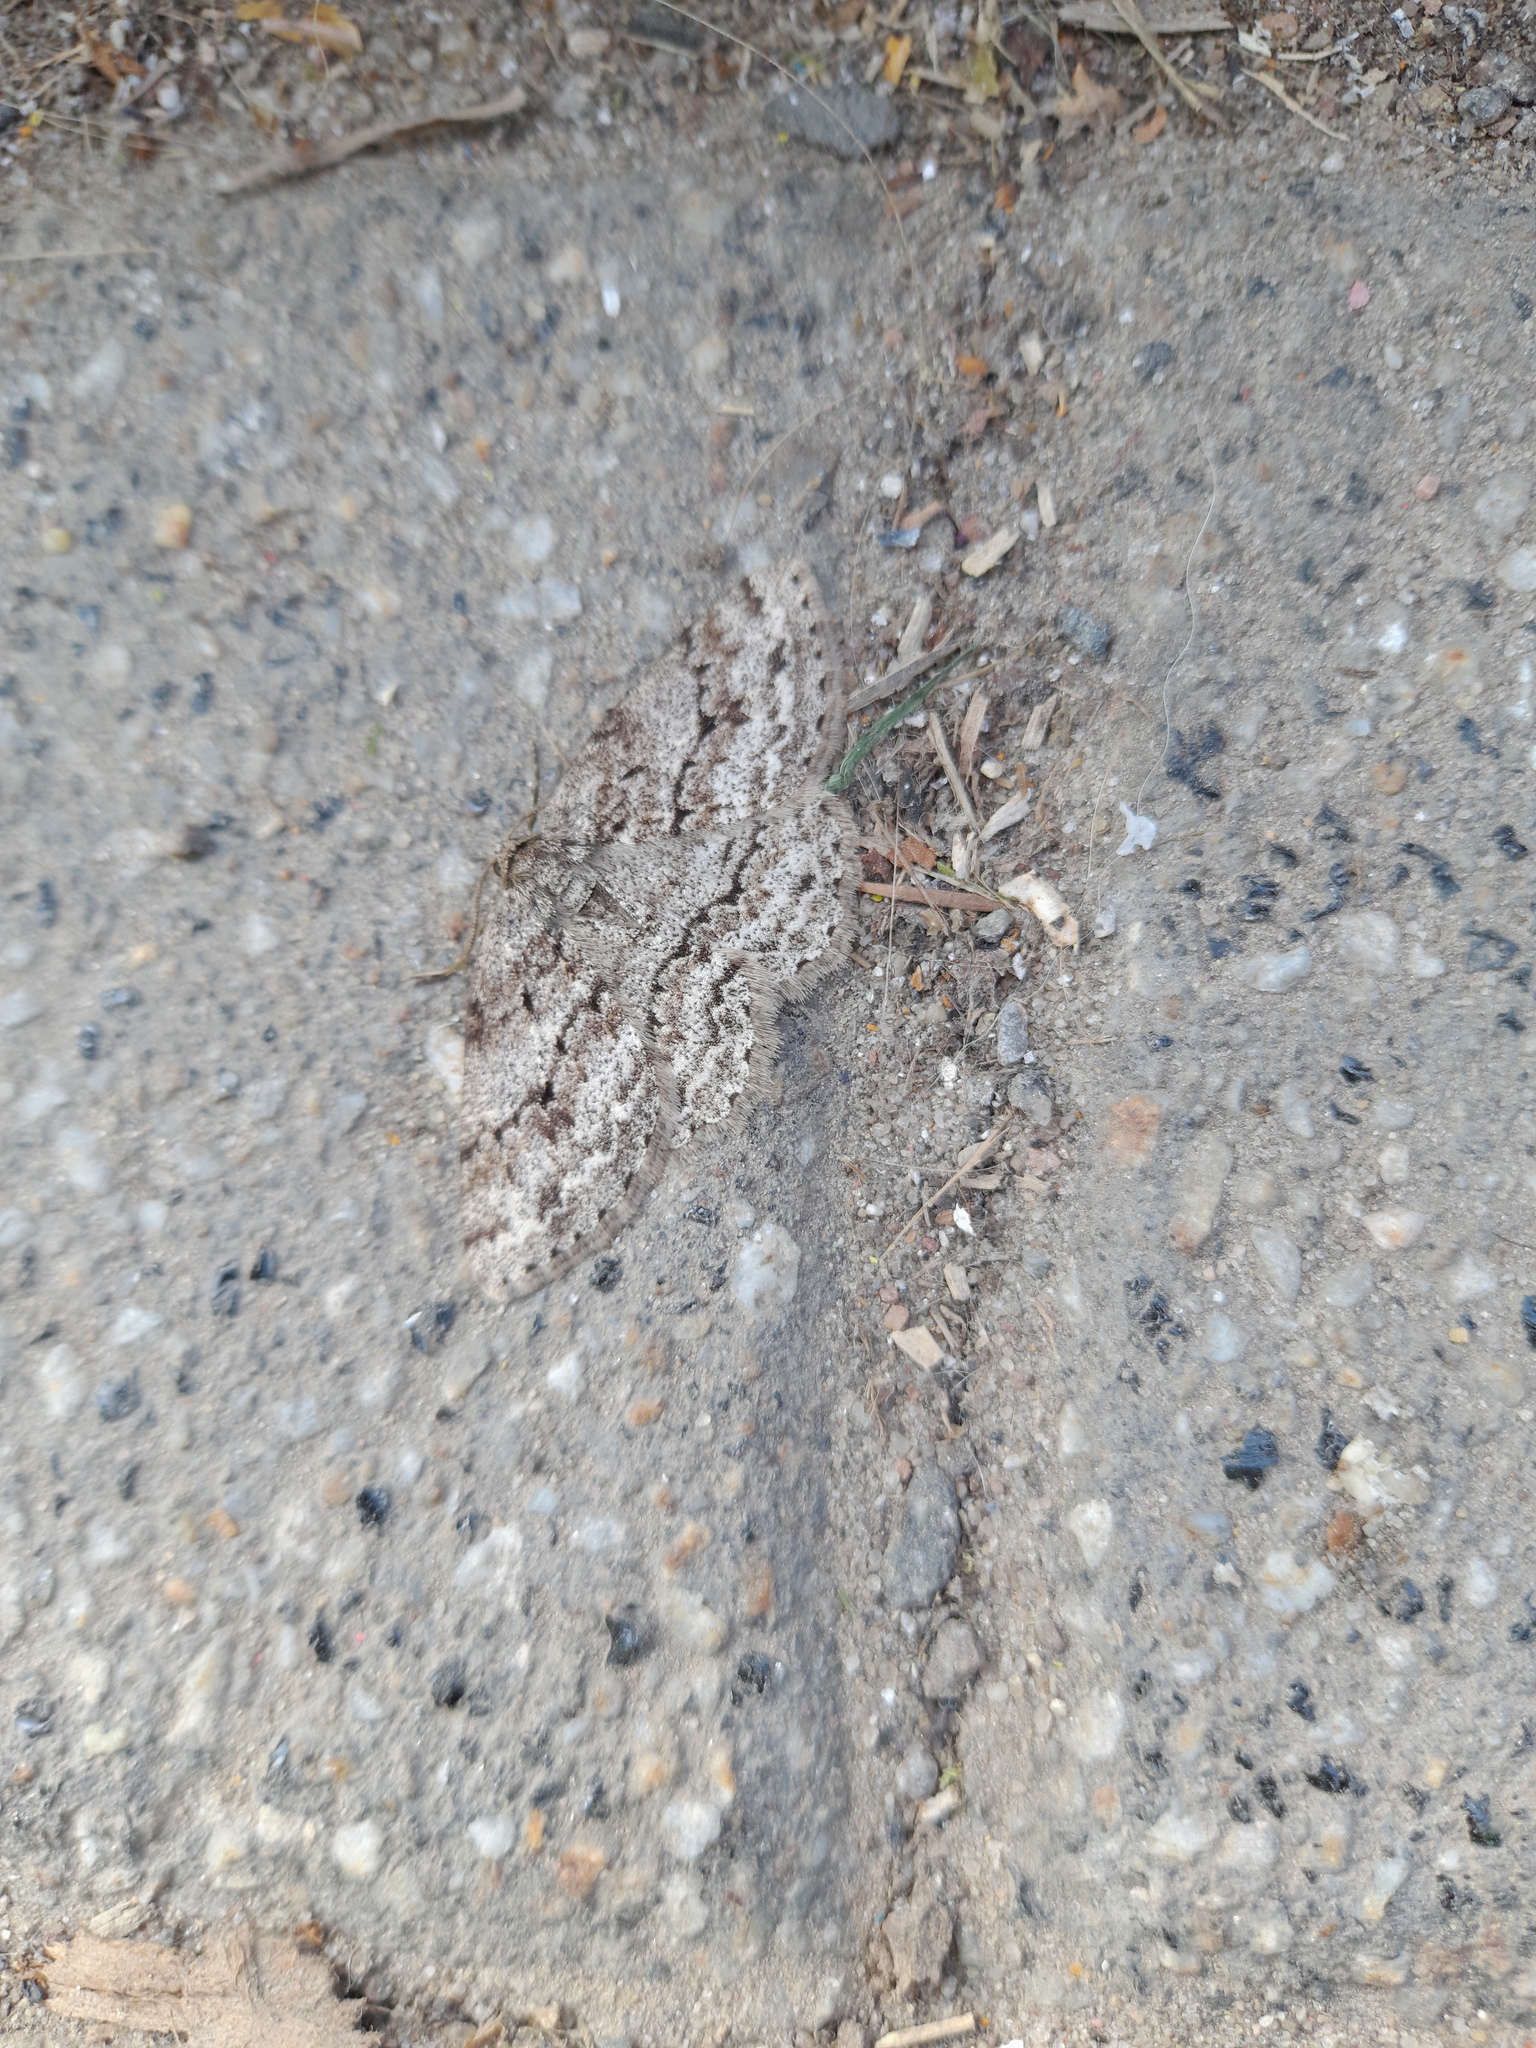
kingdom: Animalia
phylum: Arthropoda
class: Insecta
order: Lepidoptera
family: Geometridae
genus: Ectropis
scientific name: Ectropis crepuscularia
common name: Engrailed
